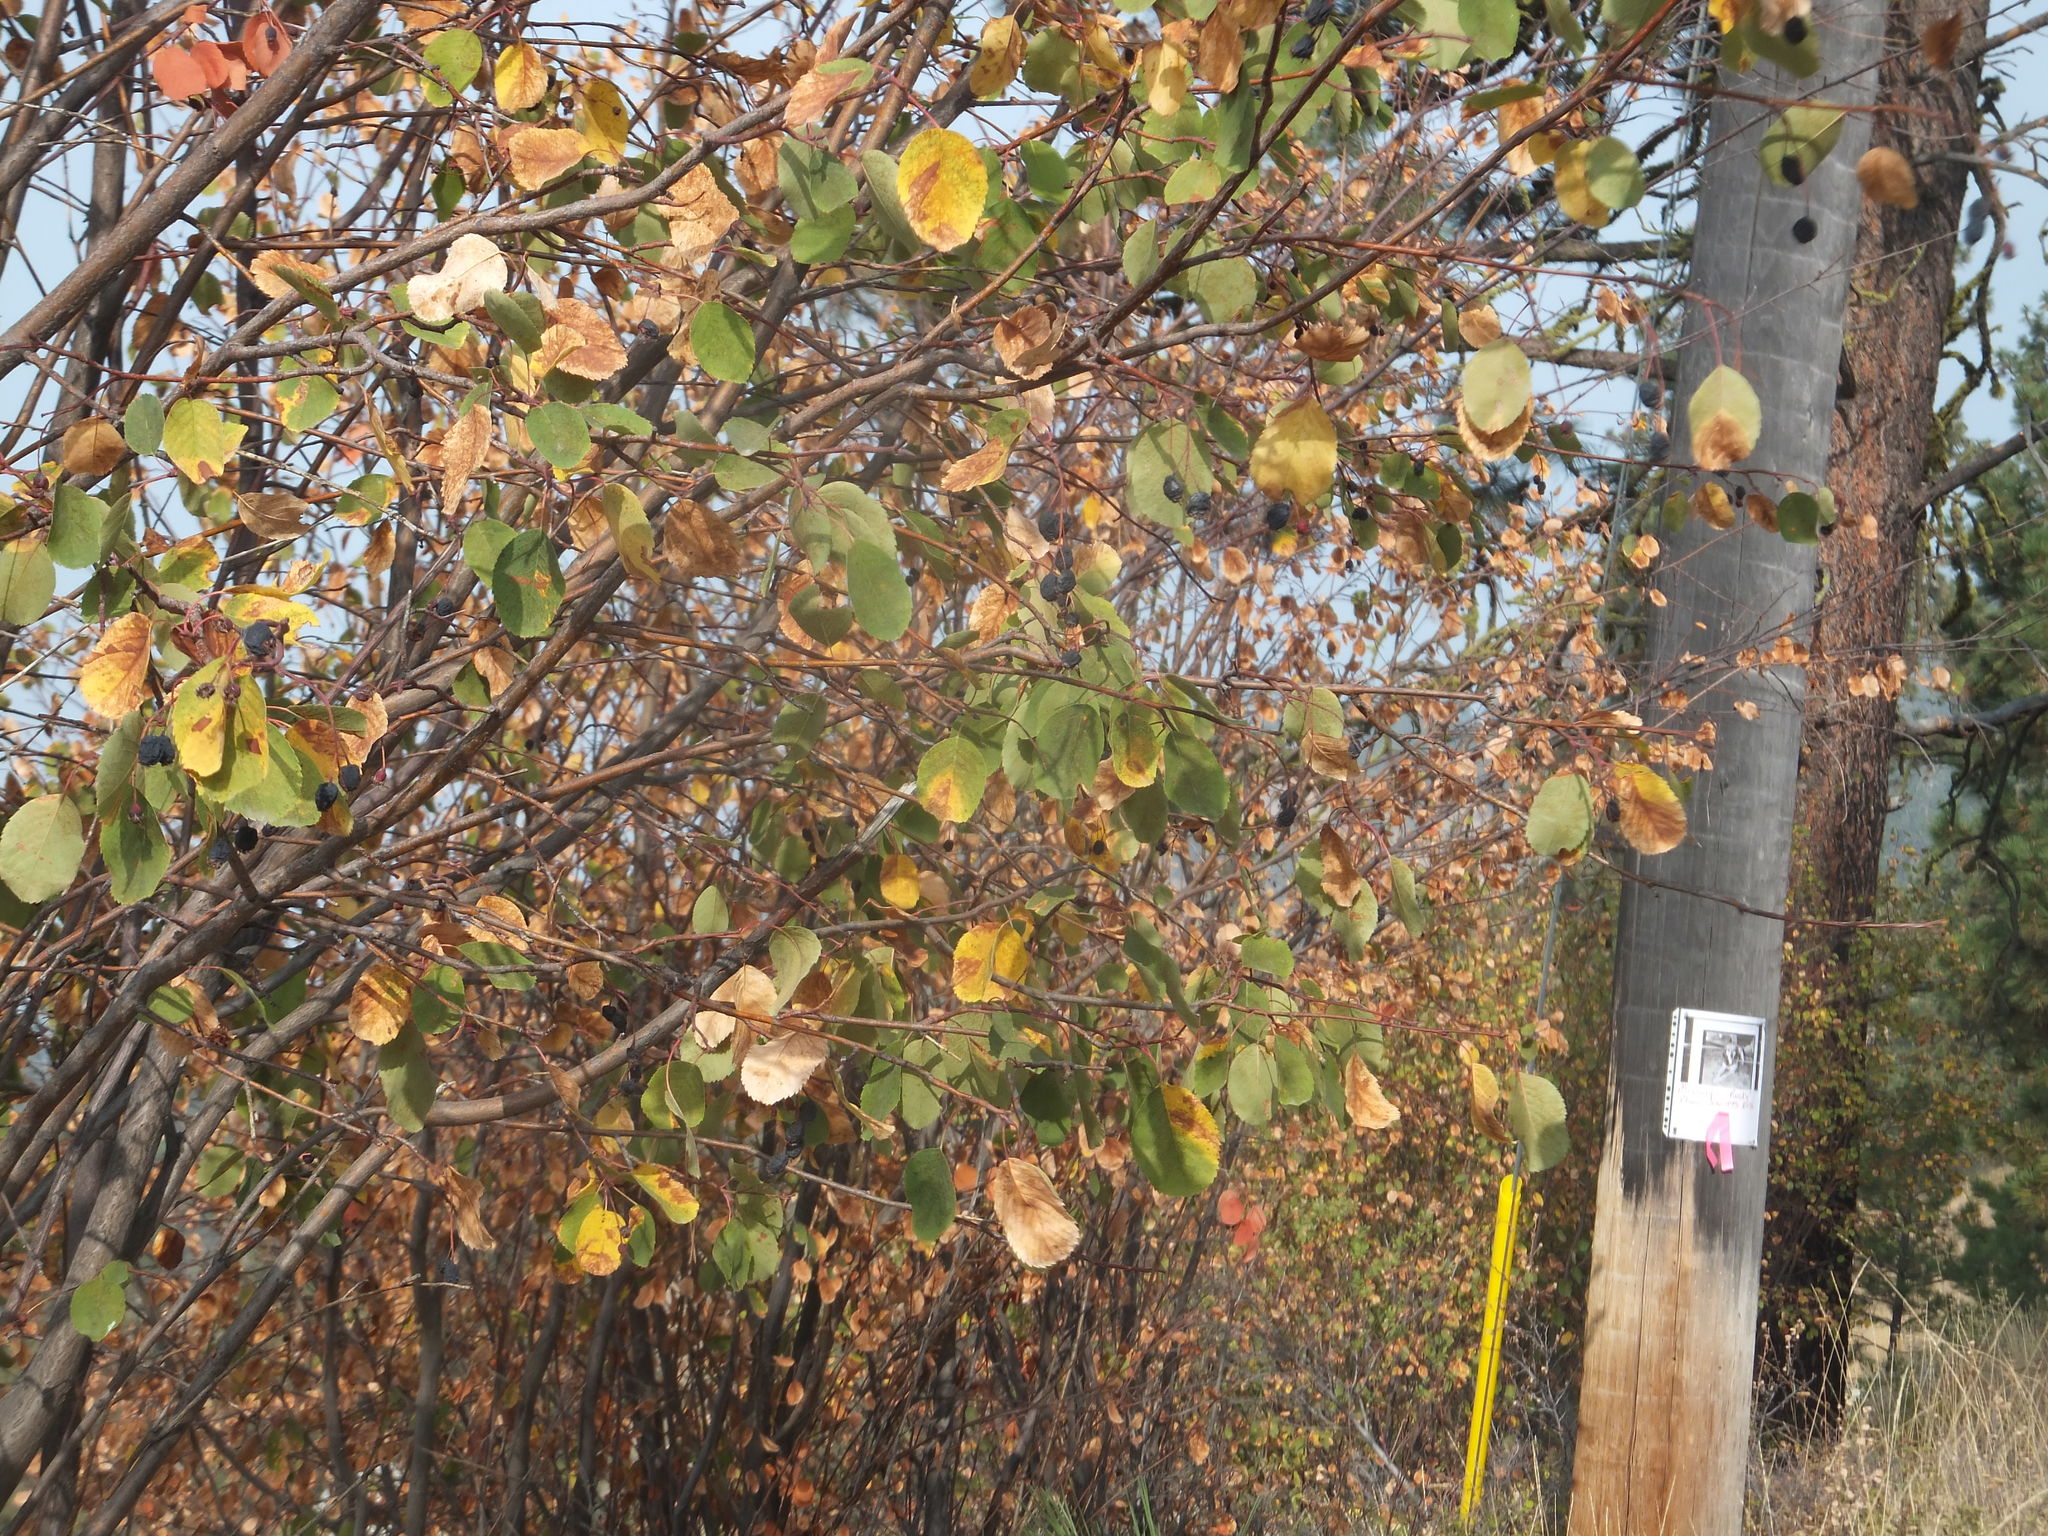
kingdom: Plantae
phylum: Tracheophyta
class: Magnoliopsida
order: Rosales
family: Rosaceae
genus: Amelanchier
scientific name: Amelanchier alnifolia
